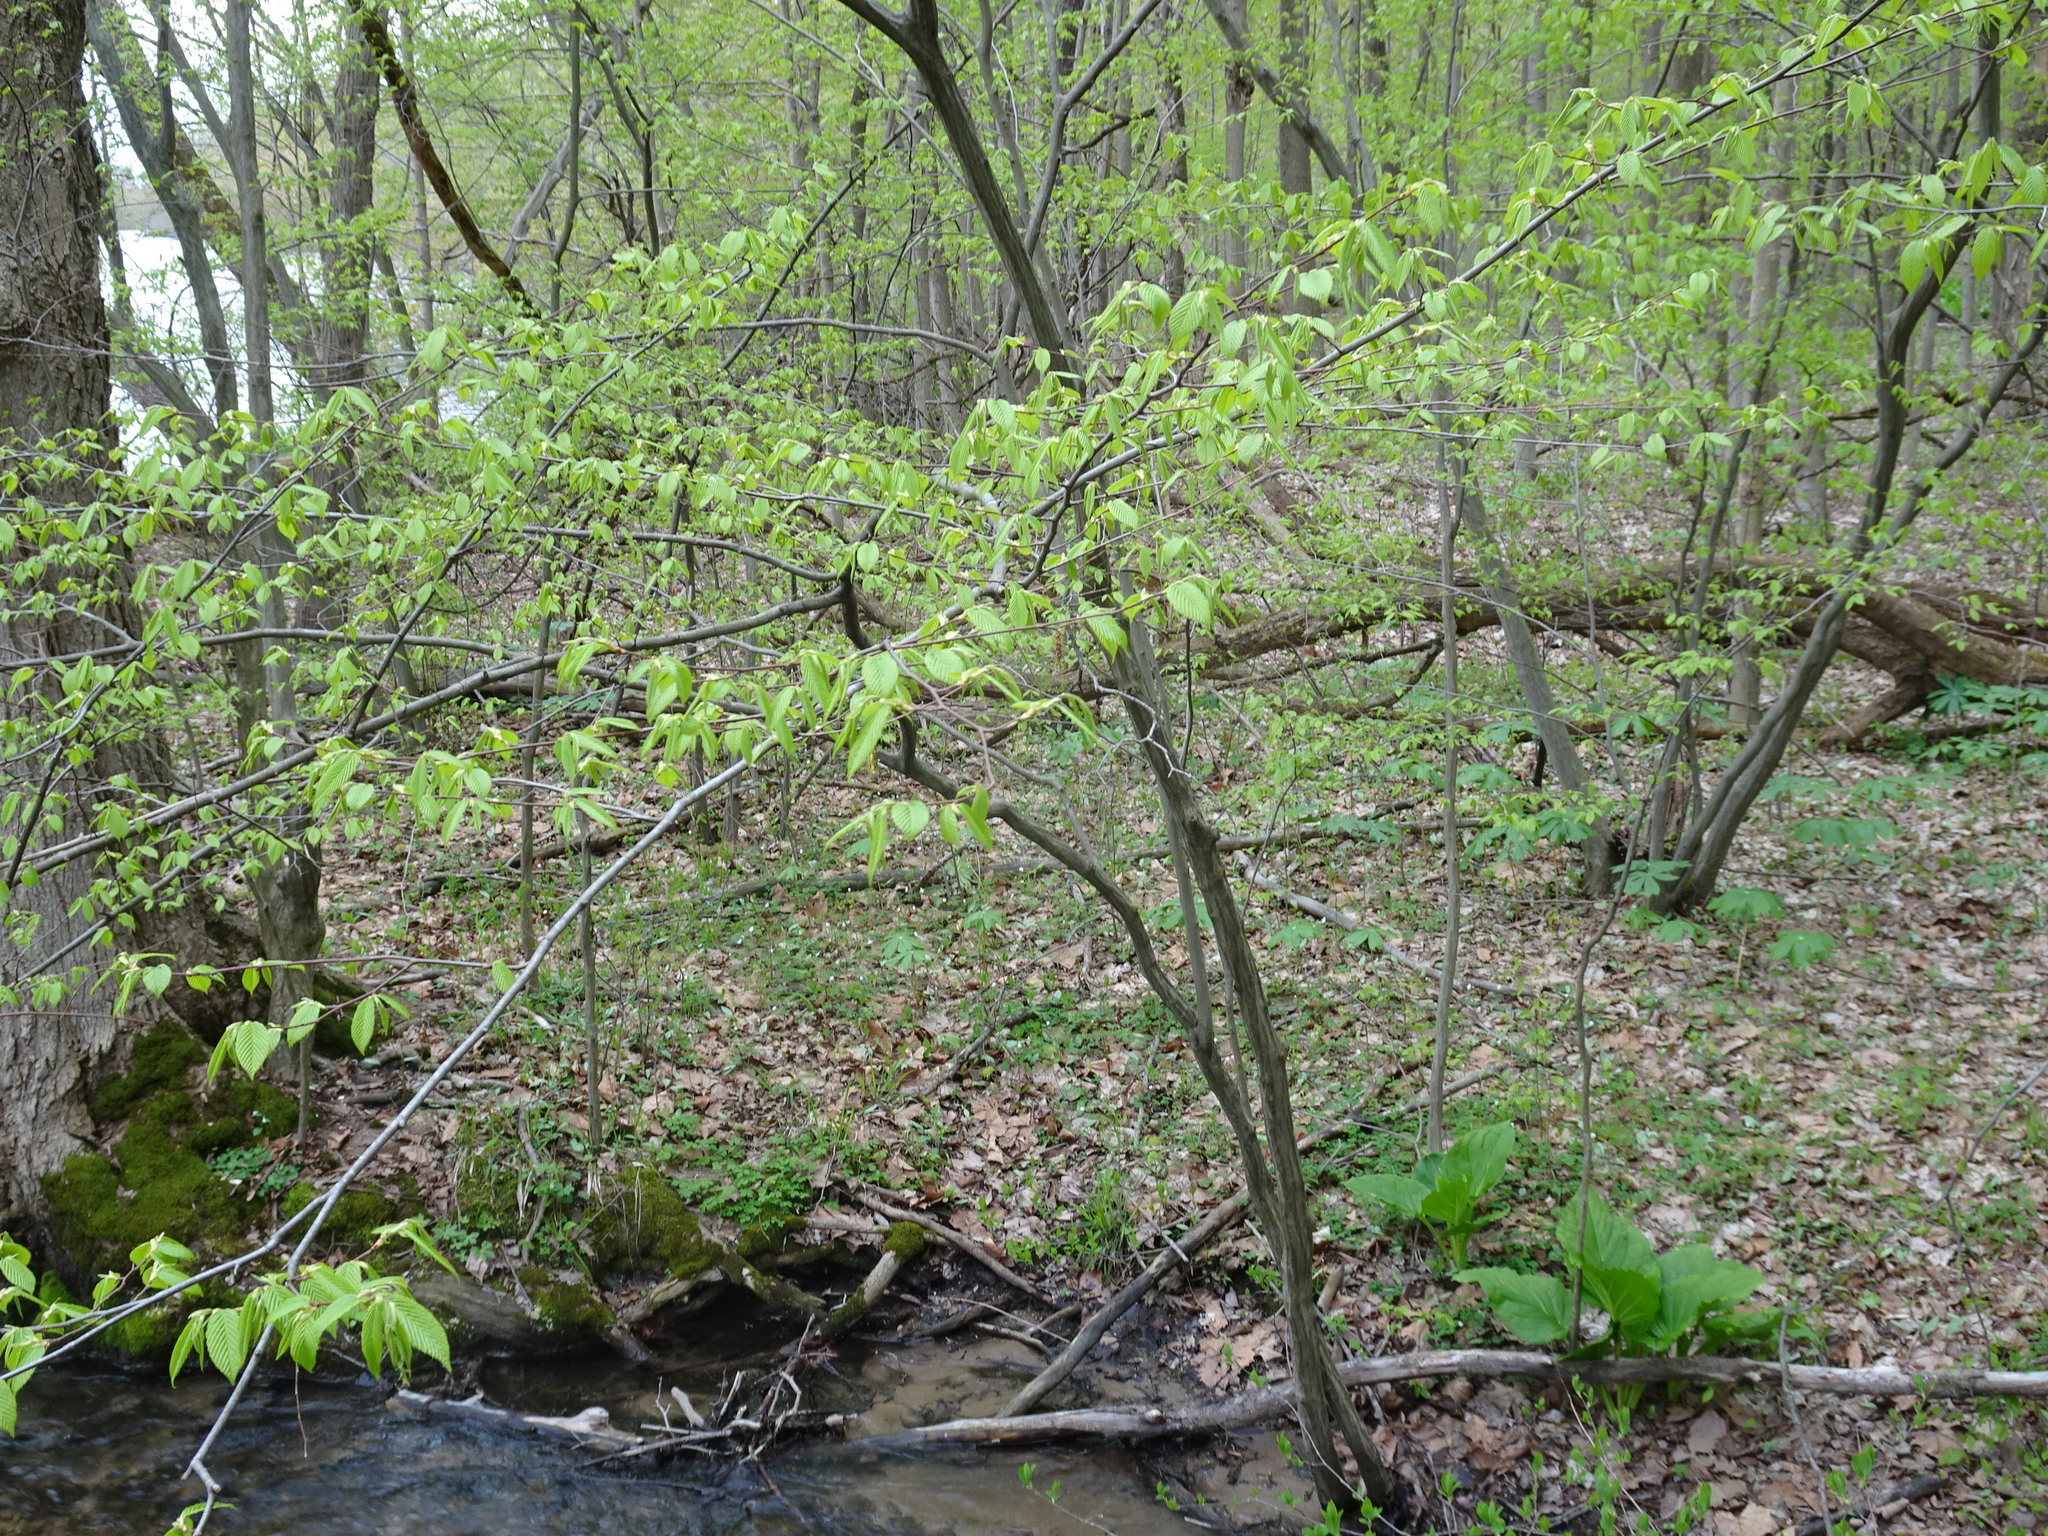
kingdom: Plantae
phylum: Tracheophyta
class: Magnoliopsida
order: Fagales
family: Betulaceae
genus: Carpinus
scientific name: Carpinus caroliniana
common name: American hornbeam
